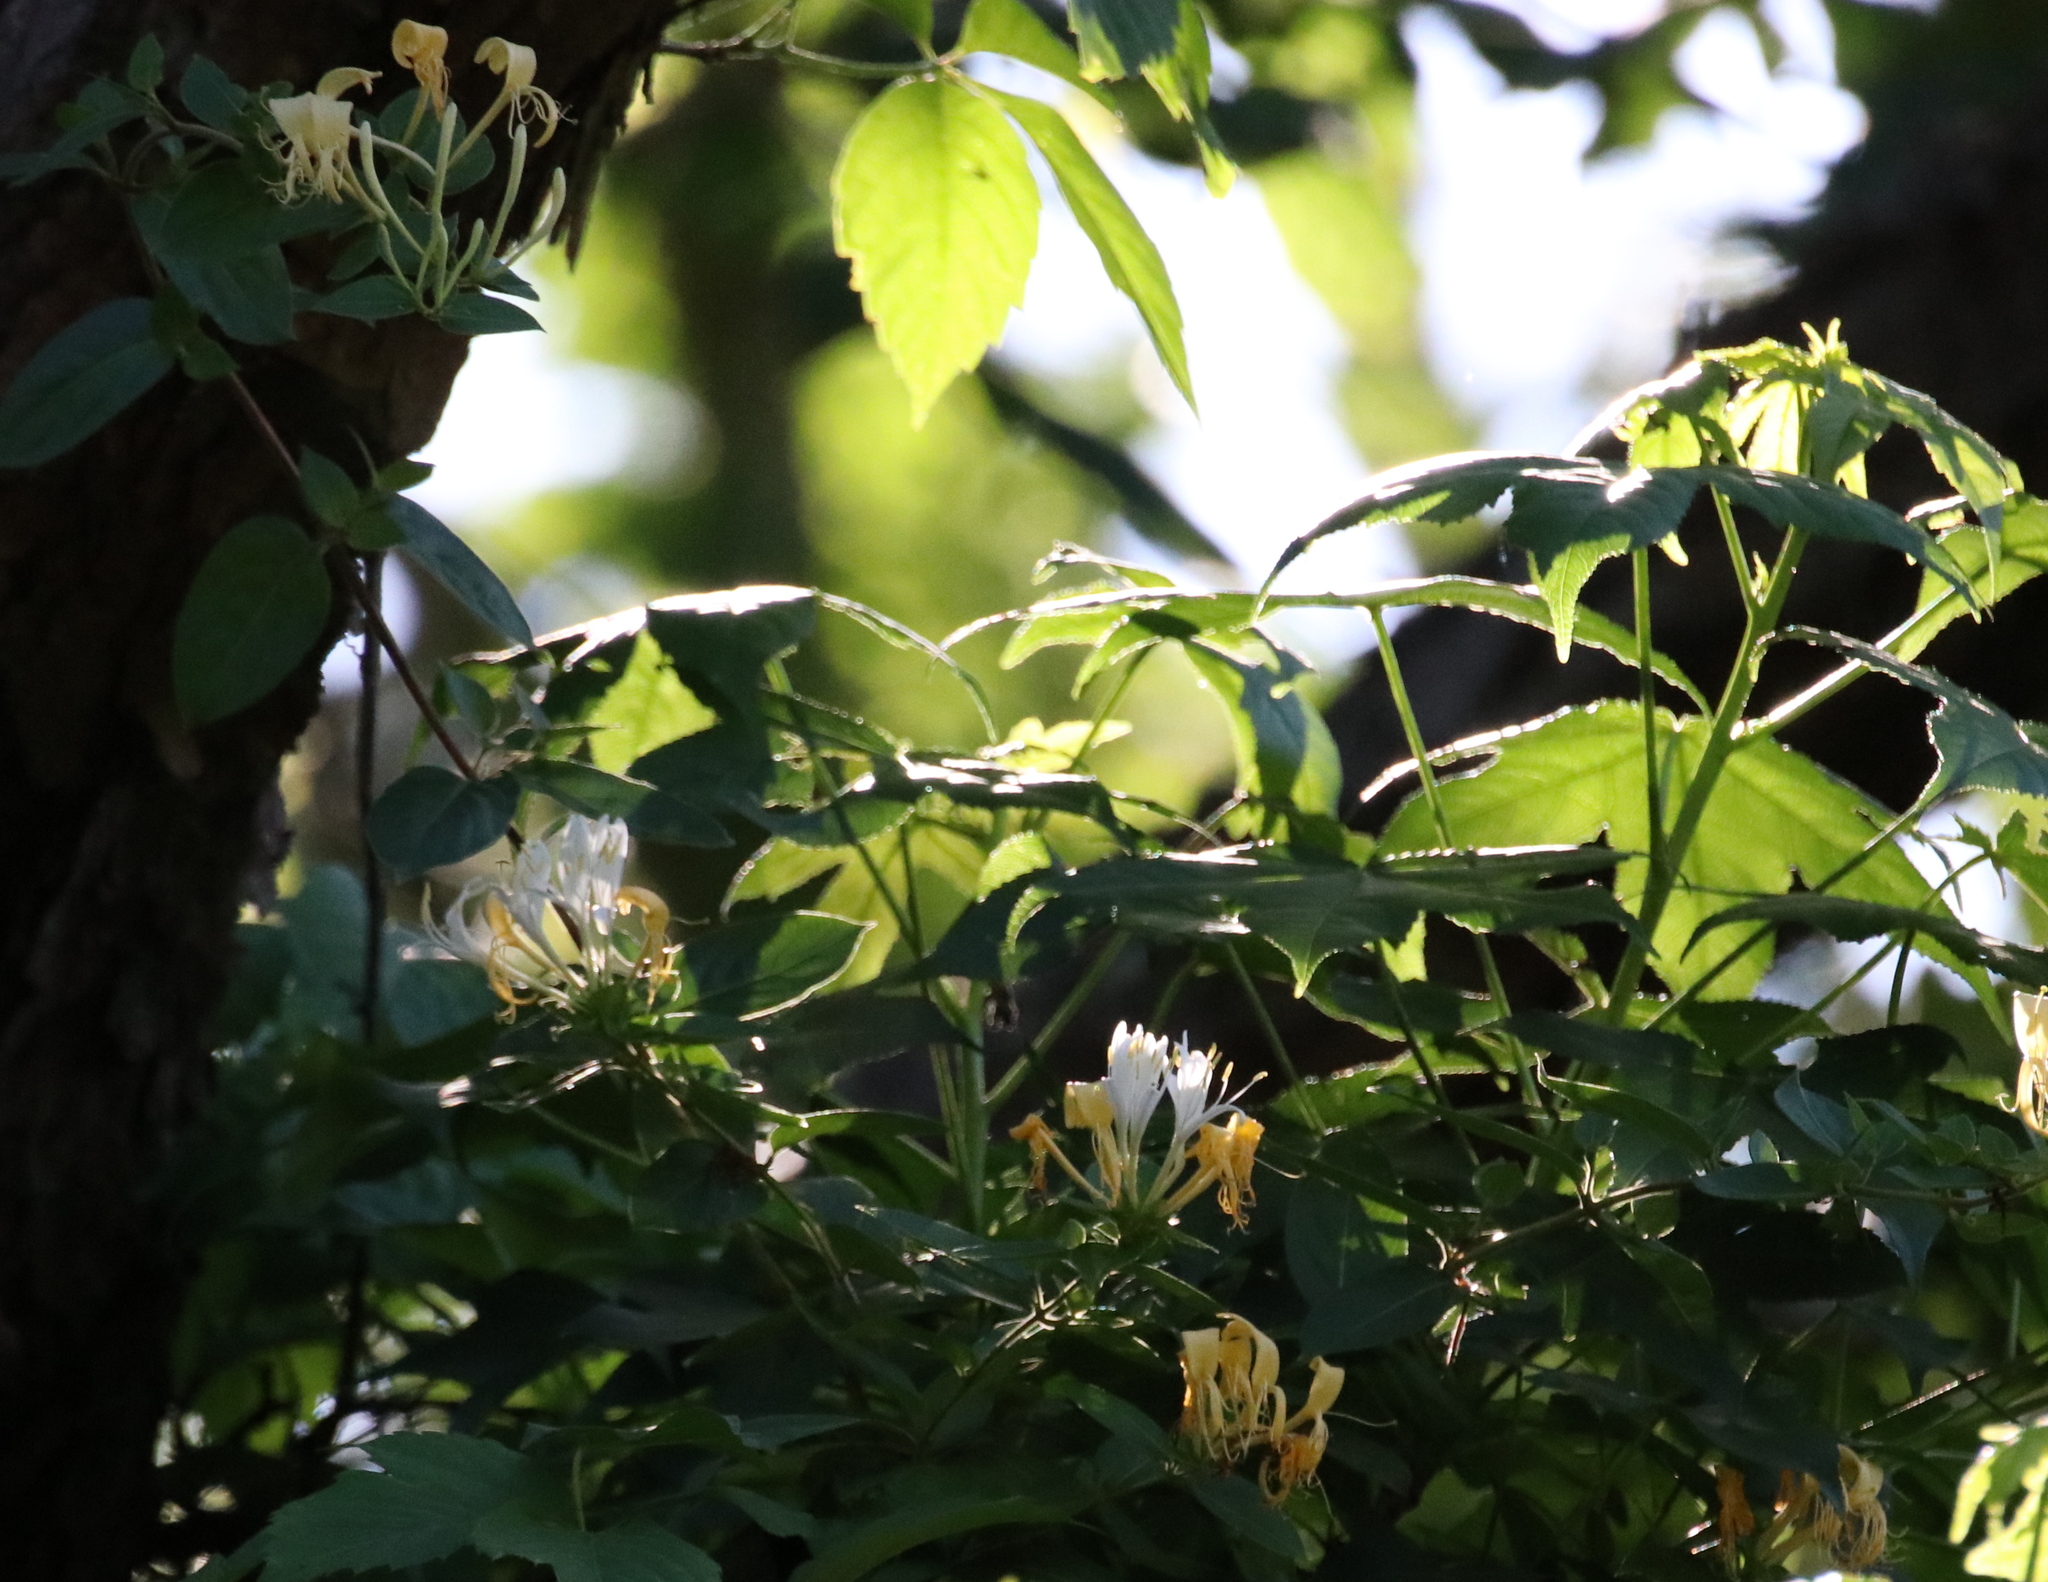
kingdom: Plantae
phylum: Tracheophyta
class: Magnoliopsida
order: Dipsacales
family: Caprifoliaceae
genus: Lonicera
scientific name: Lonicera japonica
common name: Japanese honeysuckle
